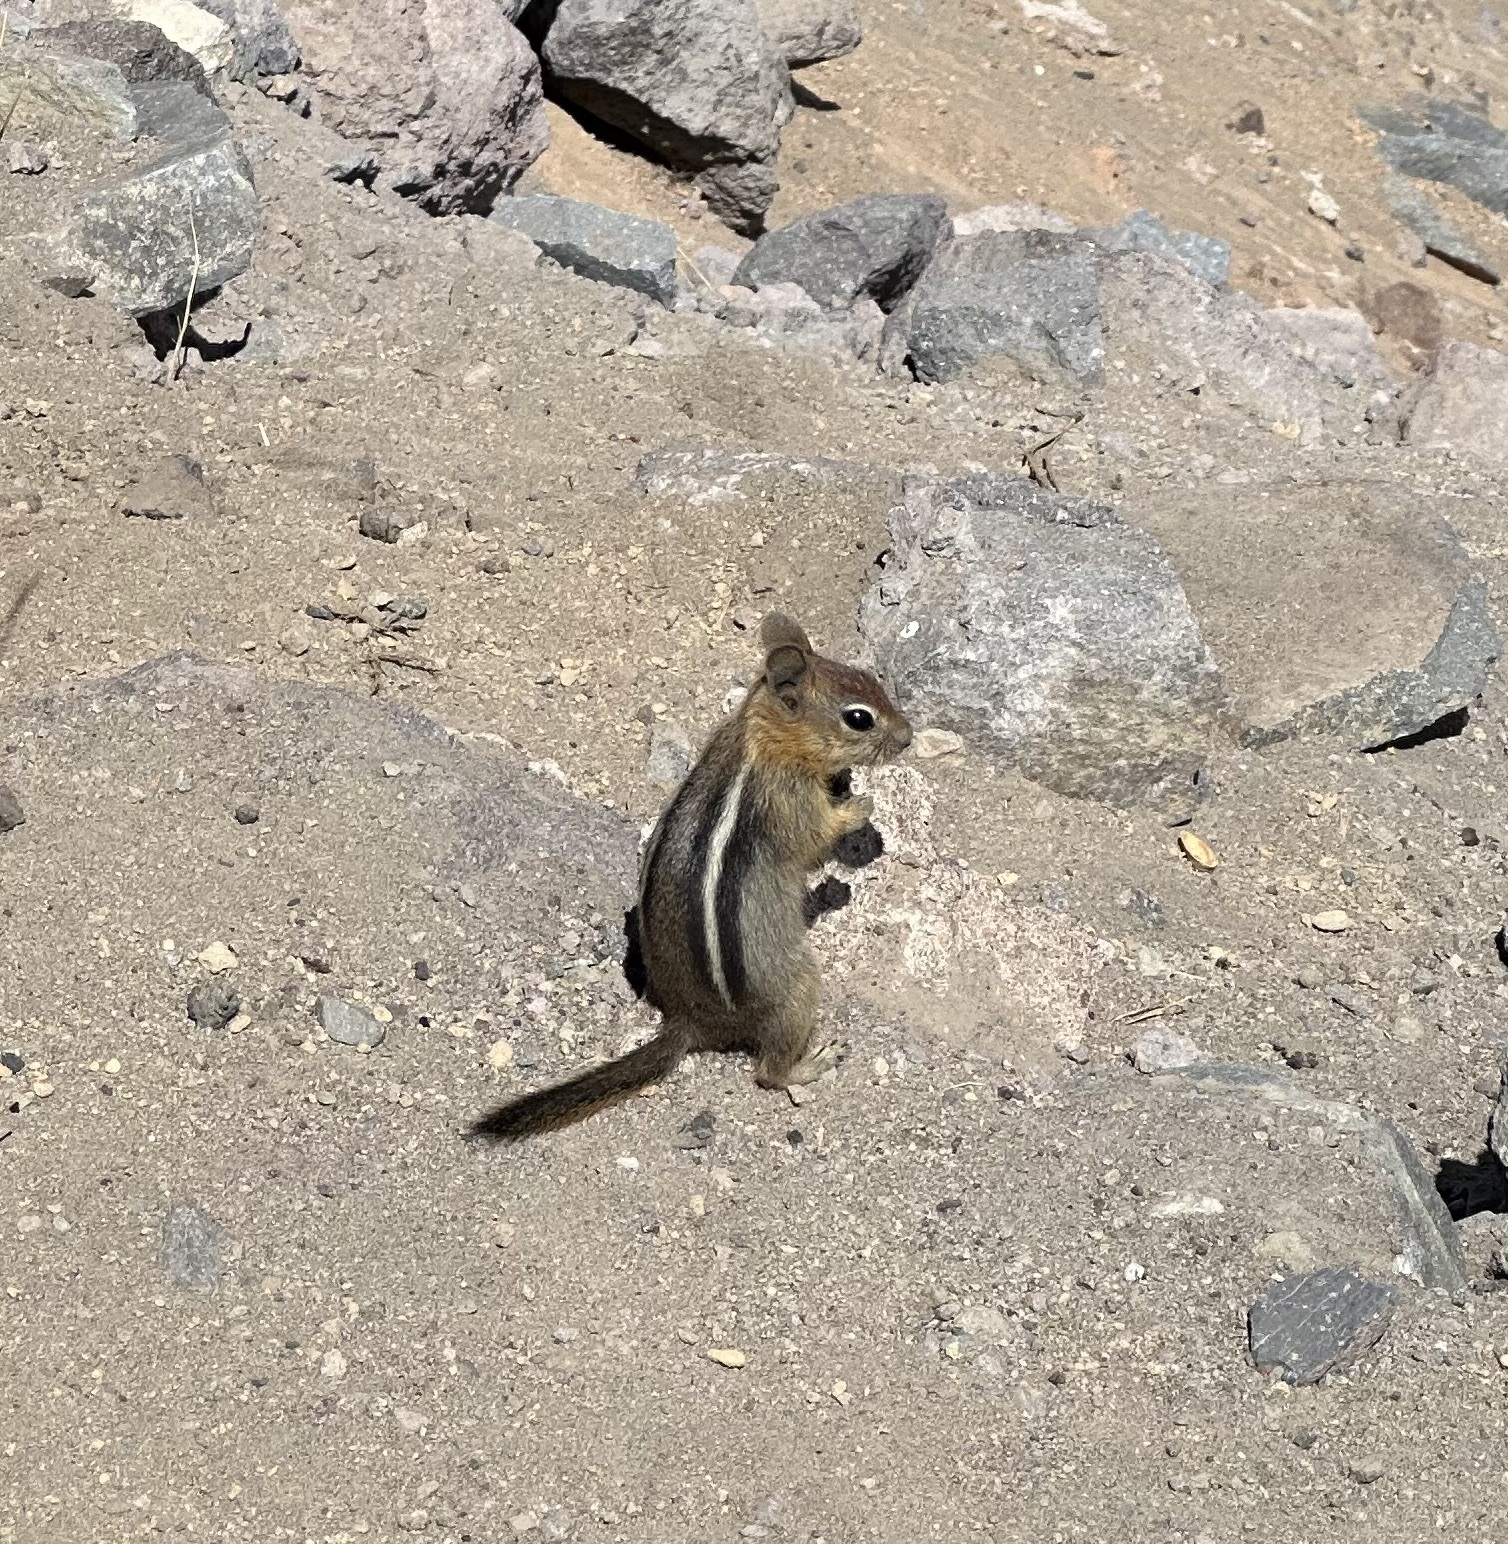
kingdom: Animalia
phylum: Chordata
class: Mammalia
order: Rodentia
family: Sciuridae
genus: Callospermophilus
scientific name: Callospermophilus lateralis
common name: Golden-mantled ground squirrel
